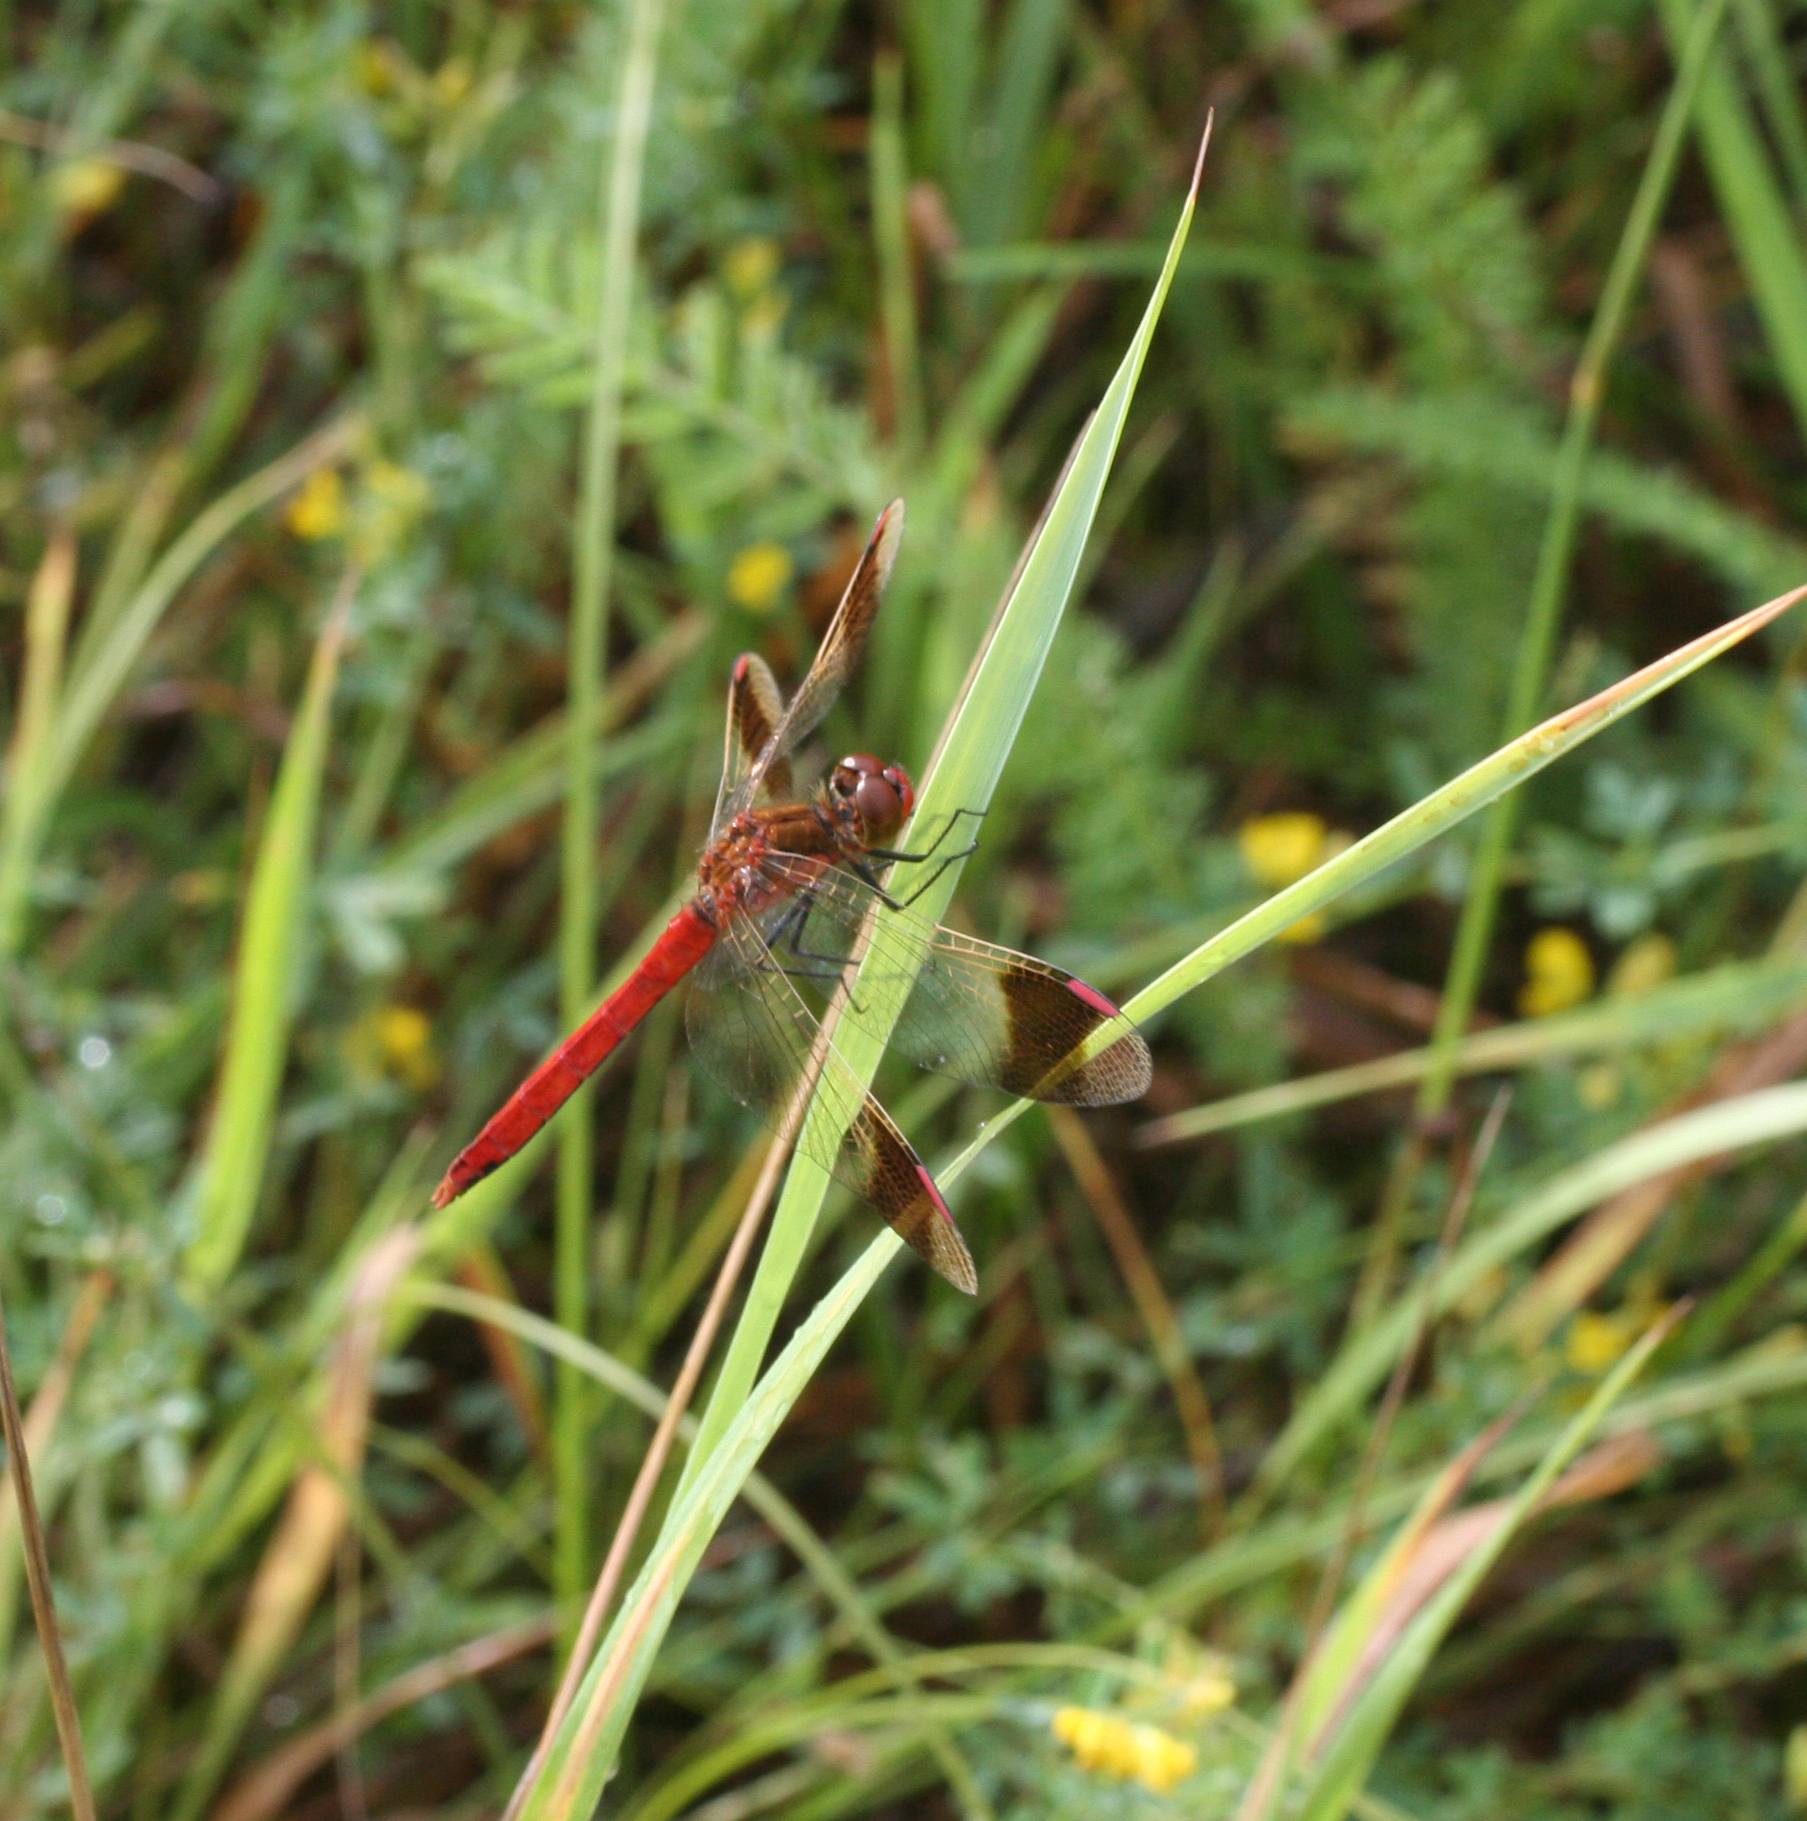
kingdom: Animalia
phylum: Arthropoda
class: Insecta
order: Odonata
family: Libellulidae
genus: Sympetrum
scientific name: Sympetrum pedemontanum
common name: Banded darter
